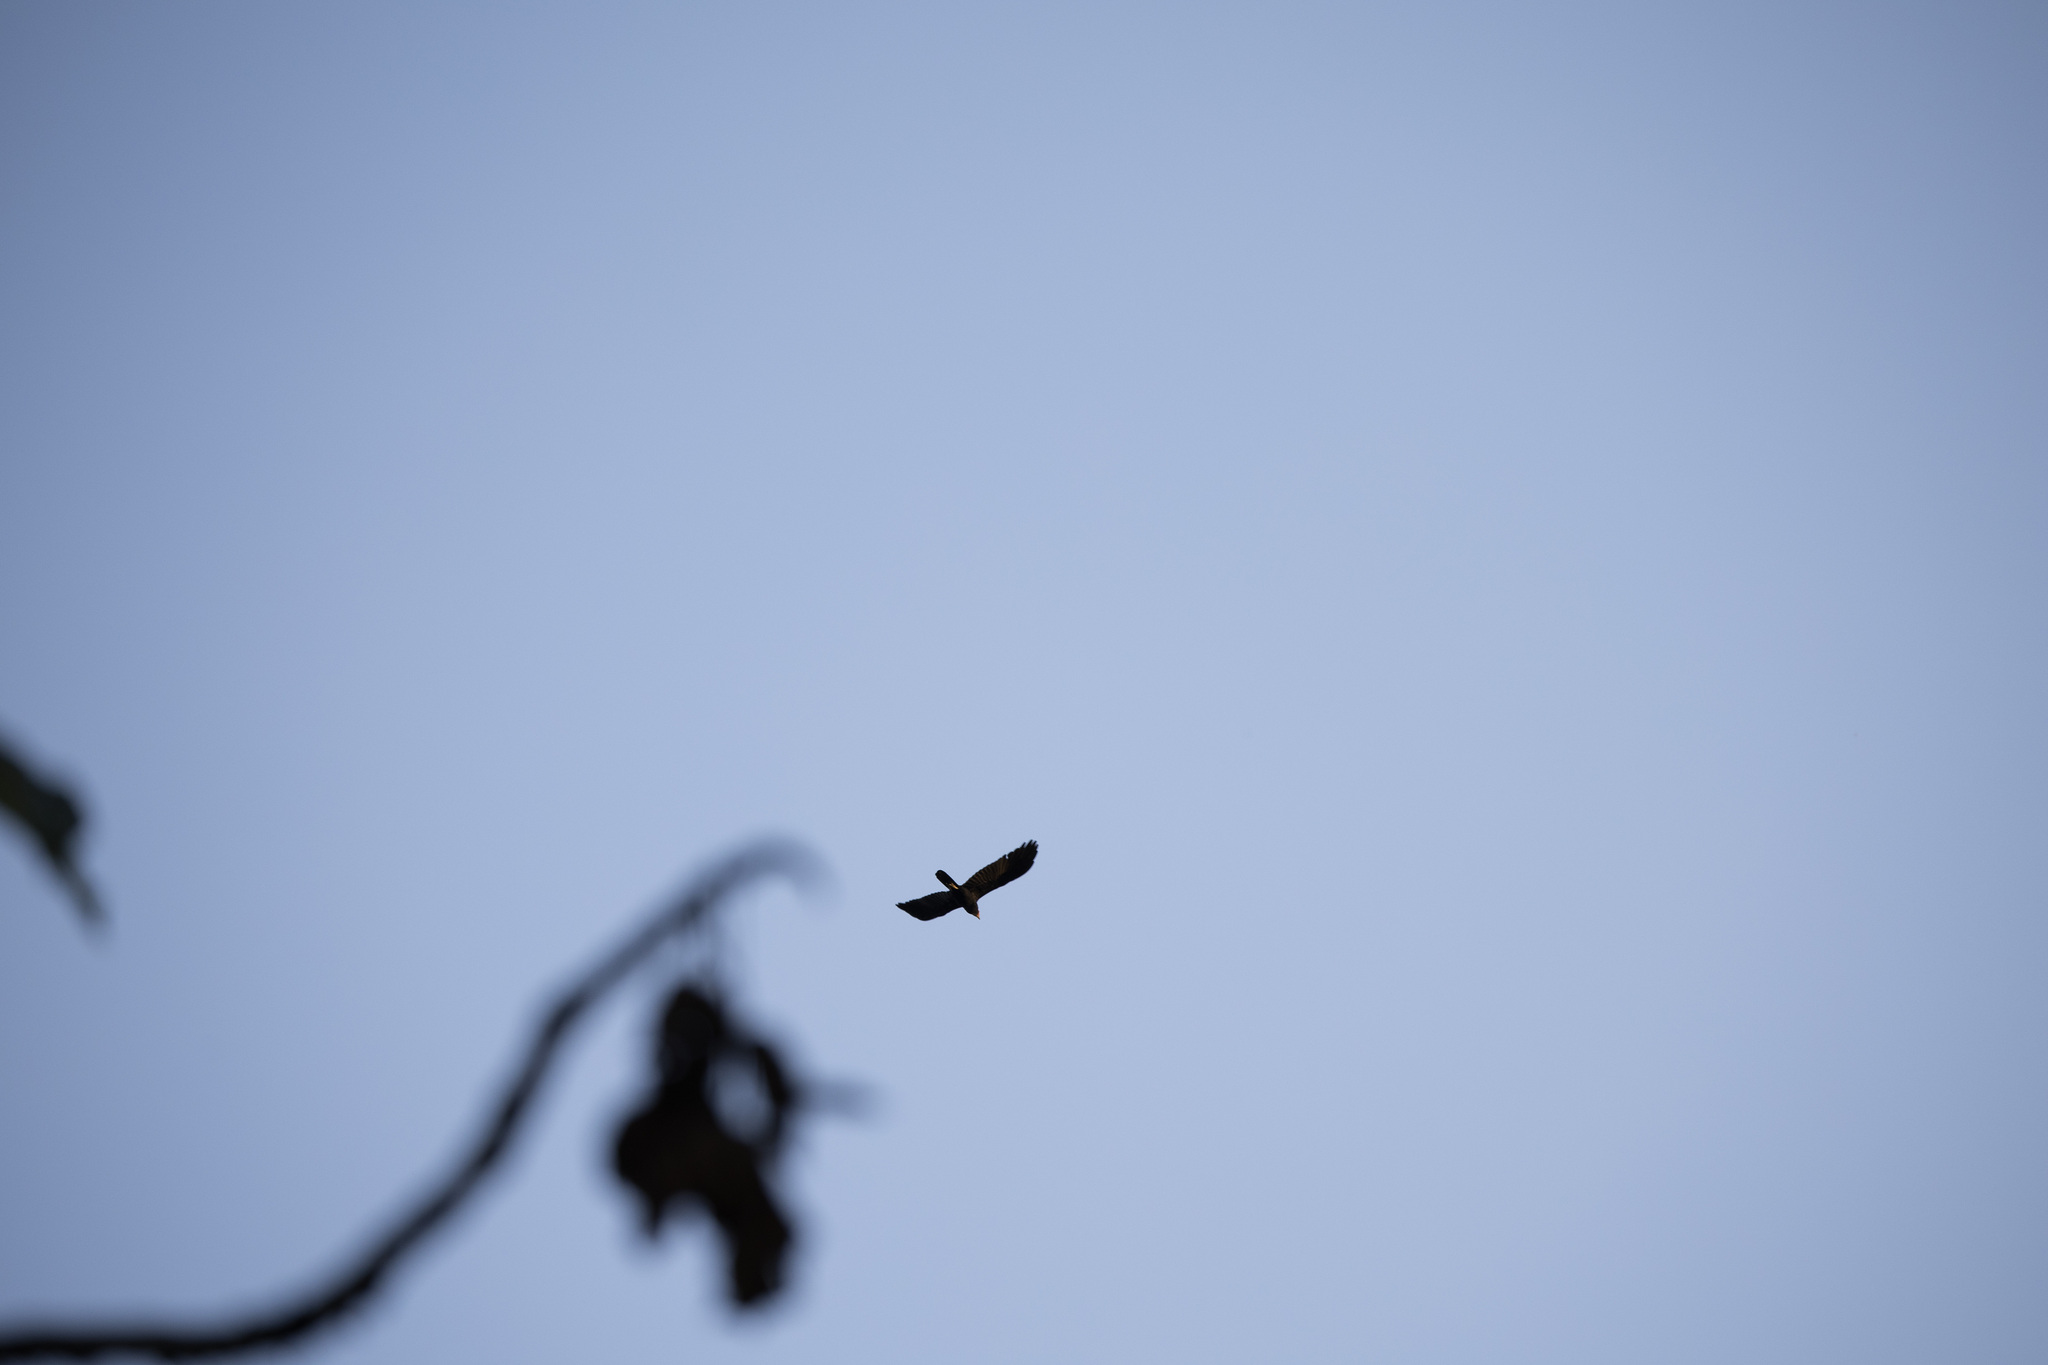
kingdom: Animalia
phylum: Chordata
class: Aves
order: Falconiformes
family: Falconidae
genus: Daptrius
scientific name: Daptrius ater
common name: Black caracara
